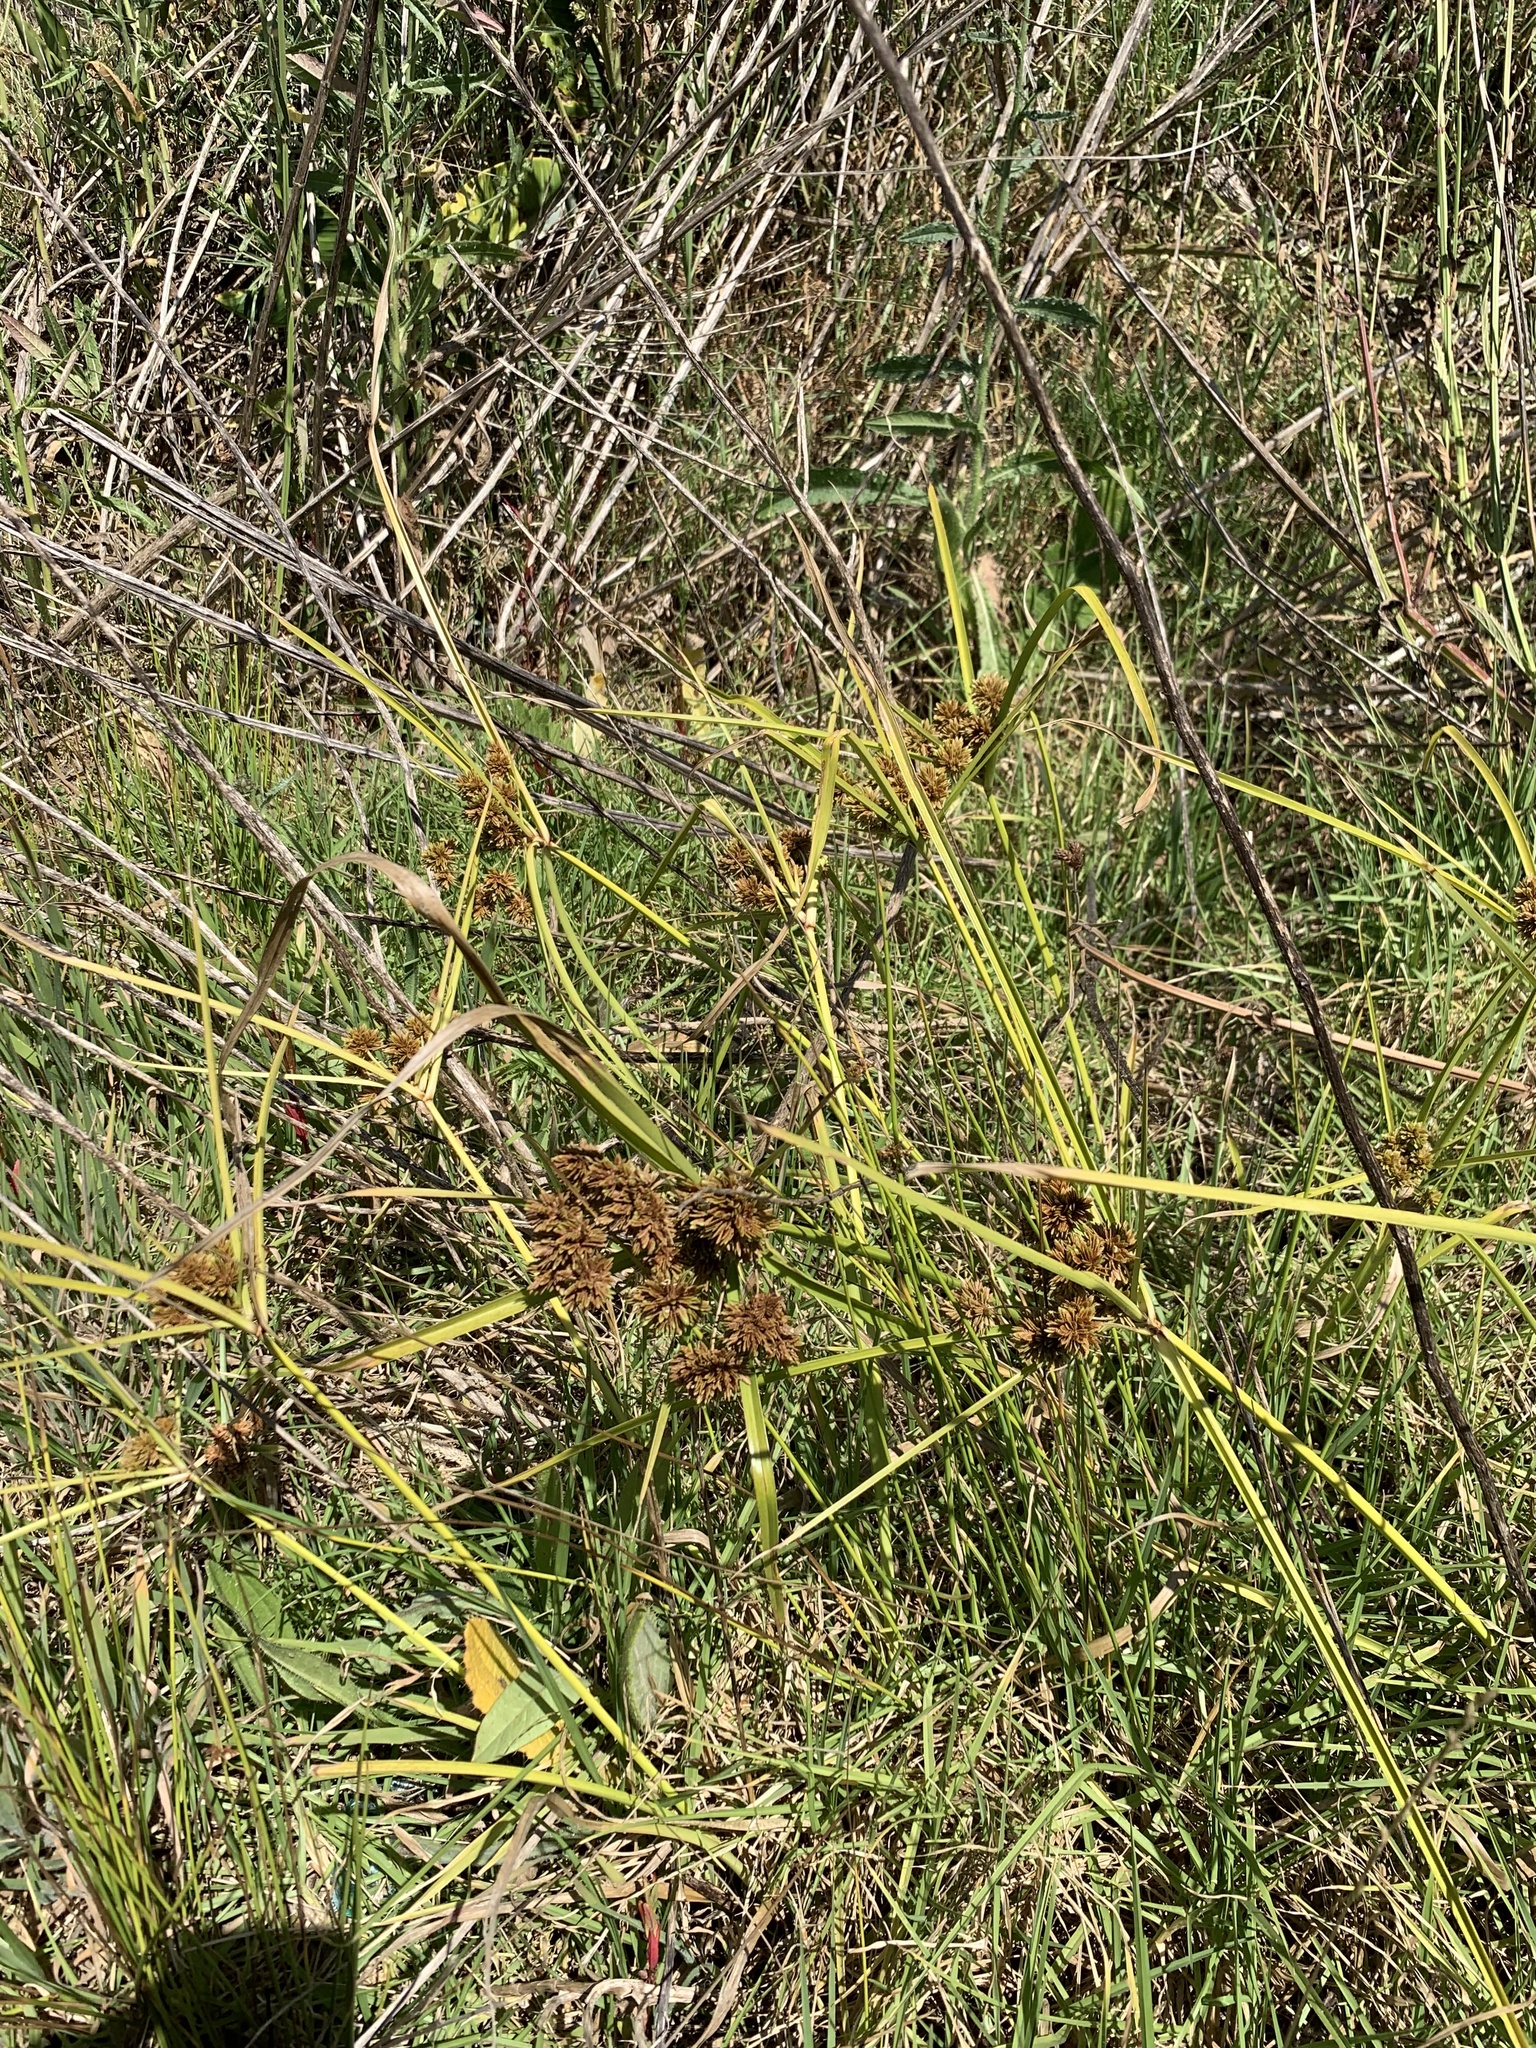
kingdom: Plantae
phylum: Tracheophyta
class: Liliopsida
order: Poales
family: Cyperaceae
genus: Cyperus
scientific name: Cyperus eragrostis
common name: Tall flatsedge
